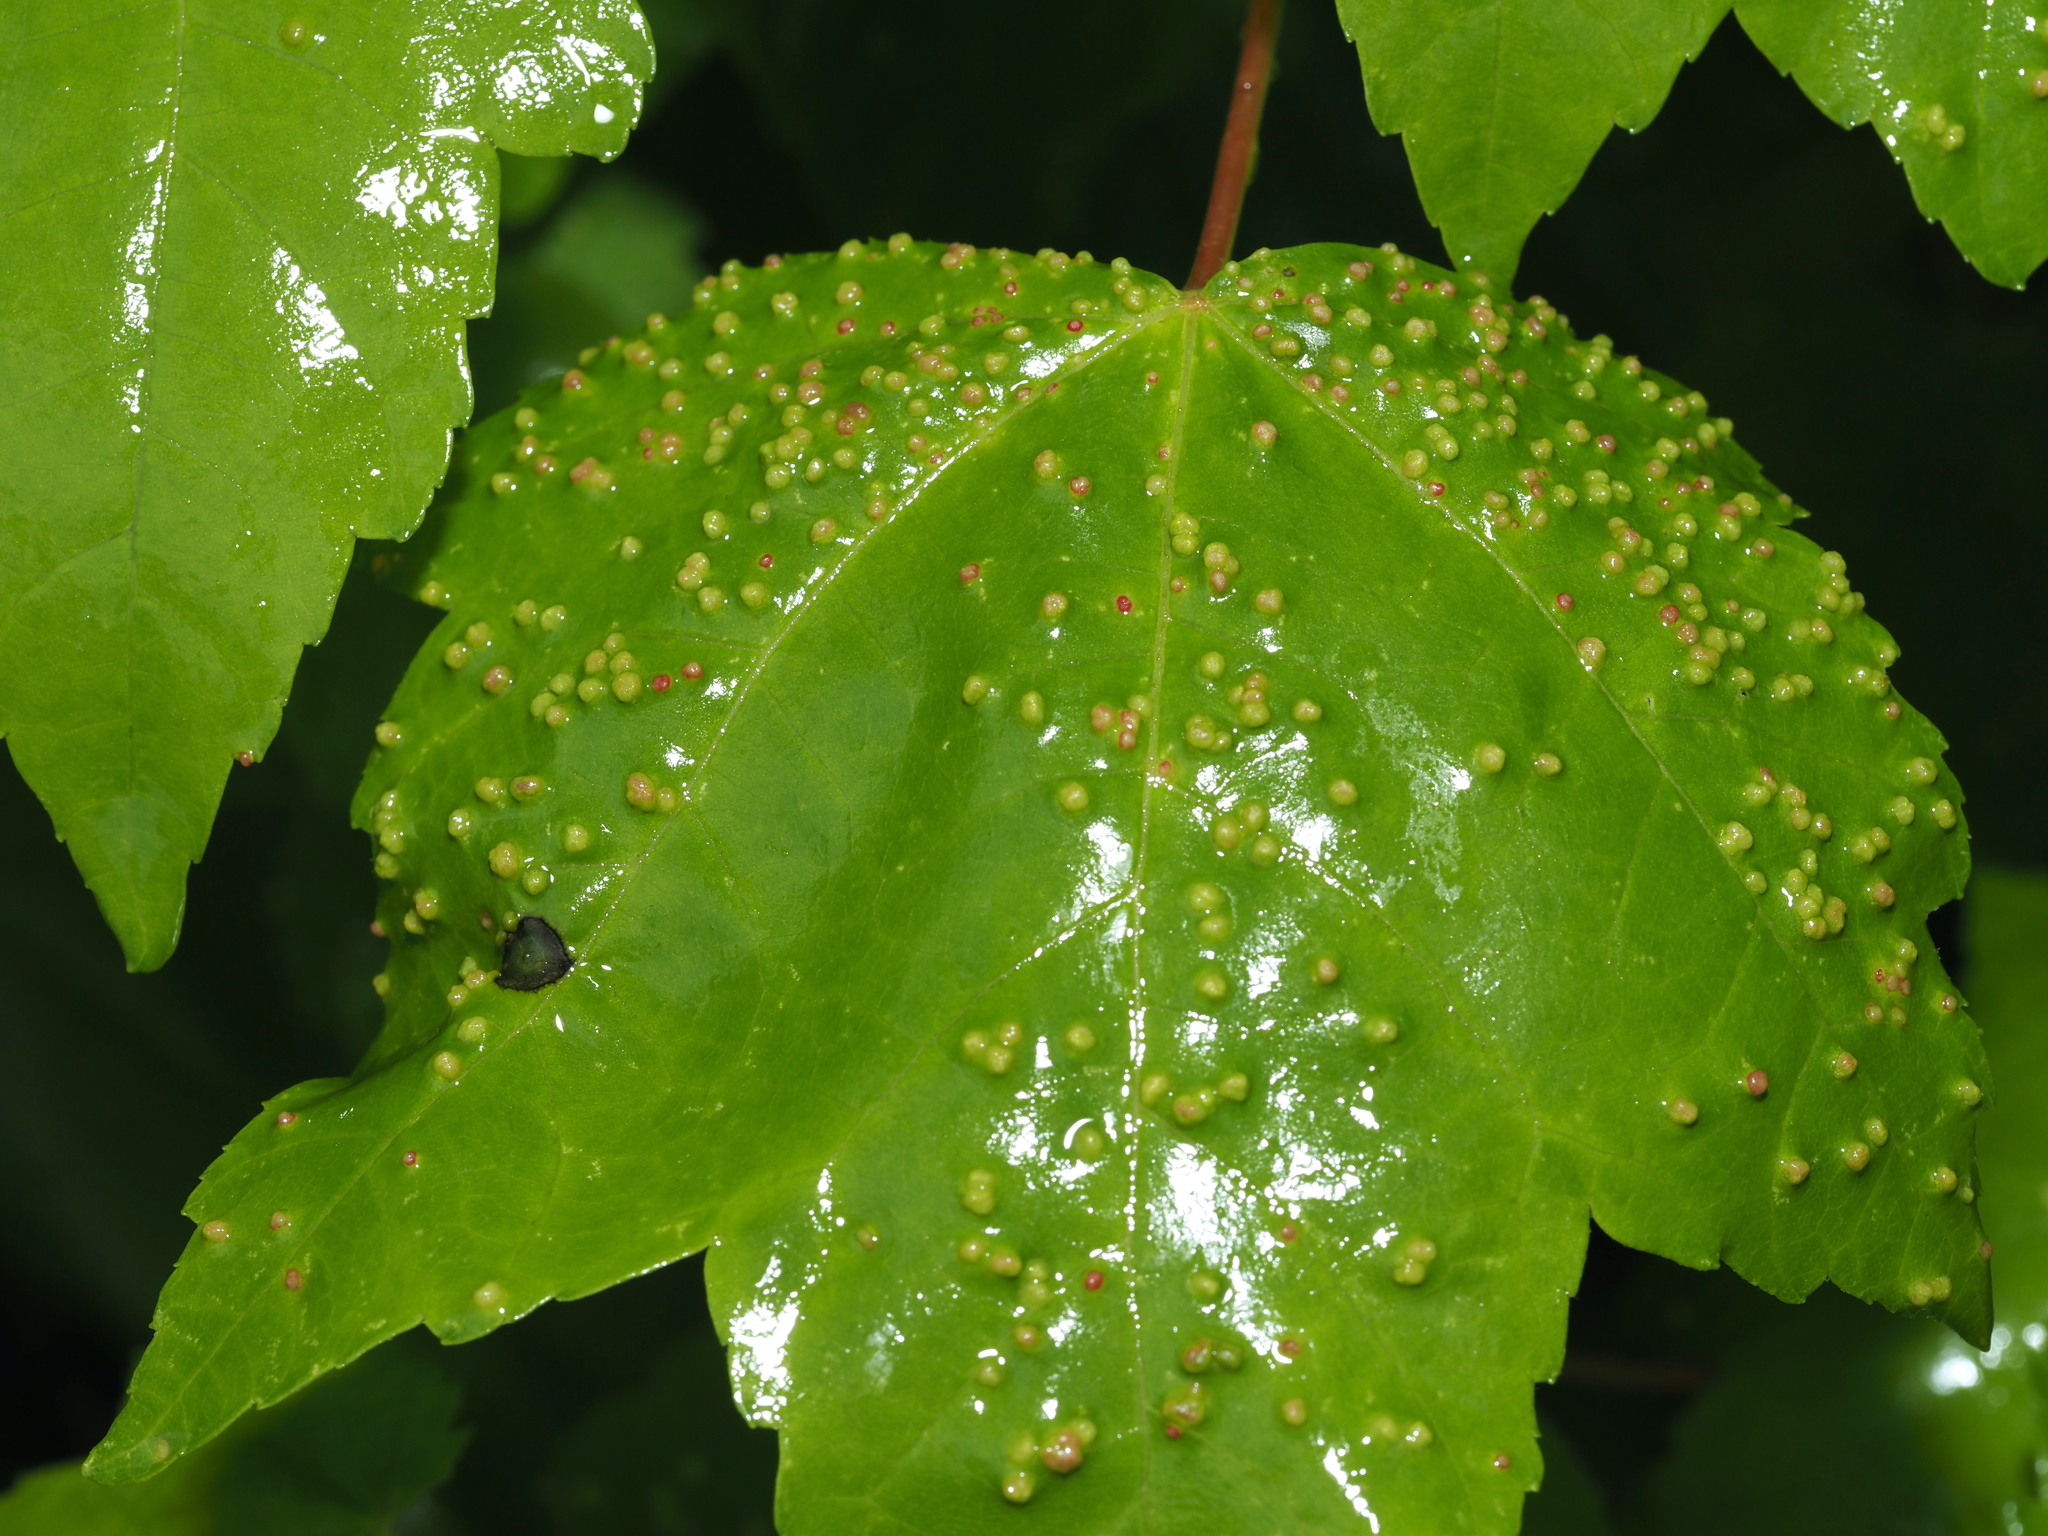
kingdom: Animalia
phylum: Arthropoda
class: Arachnida
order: Trombidiformes
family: Eriophyidae
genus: Vasates
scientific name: Vasates quadripedes
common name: Maple bladder gall mite
